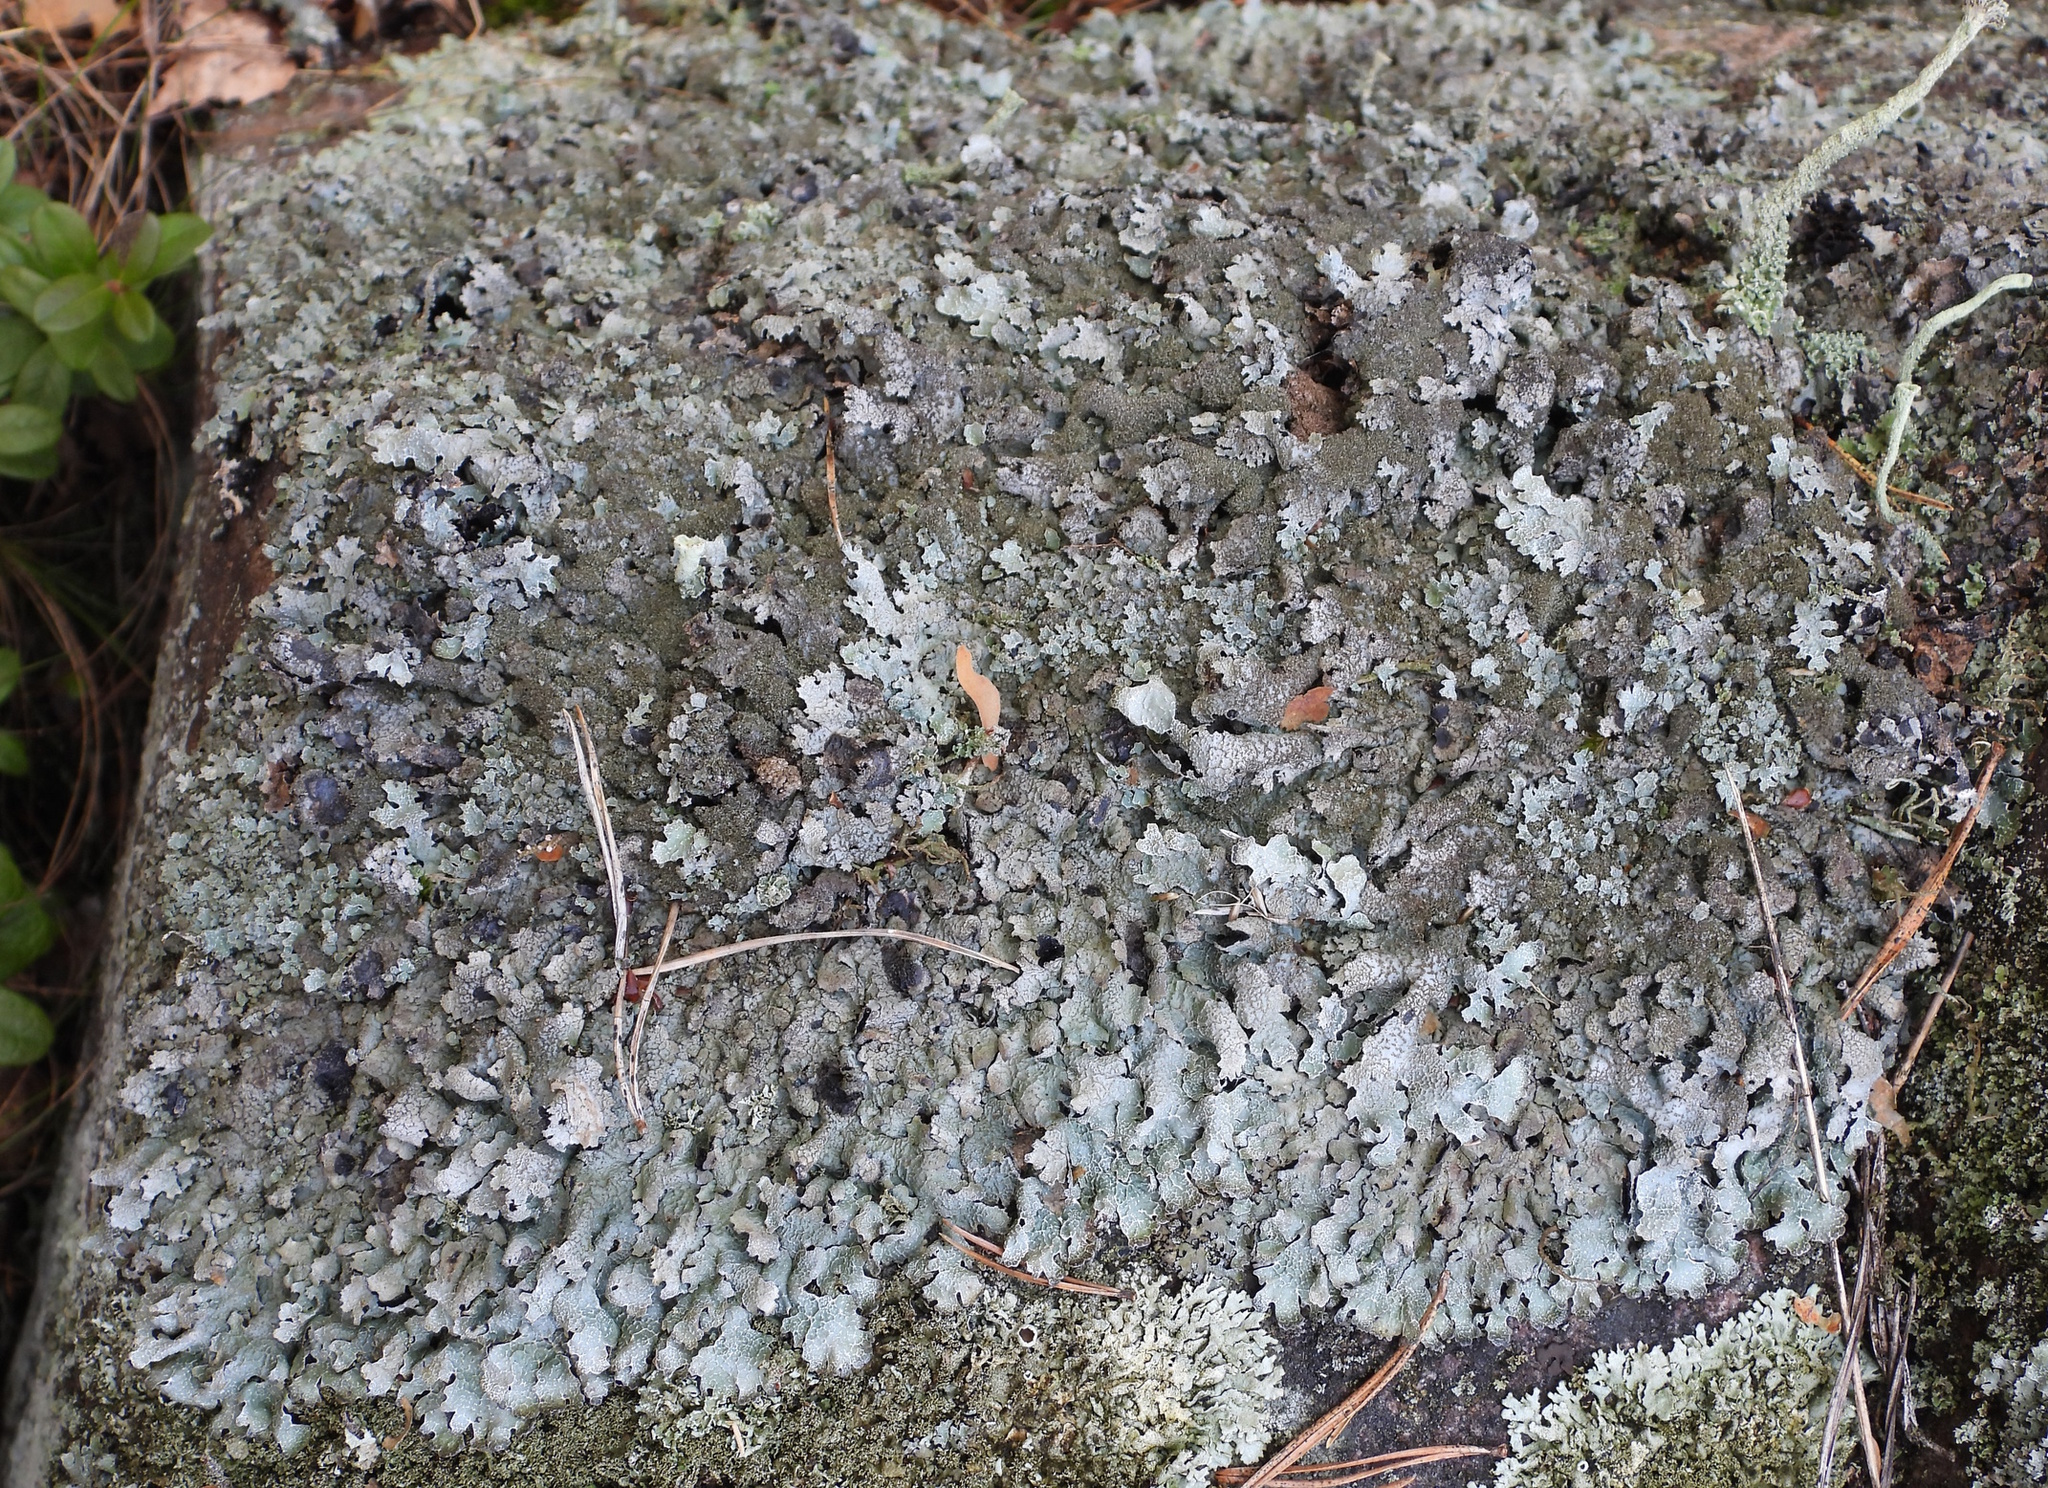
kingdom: Fungi
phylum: Ascomycota
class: Lecanoromycetes
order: Lecanorales
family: Parmeliaceae
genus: Parmelia
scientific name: Parmelia saxatilis
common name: Salted shield lichen
